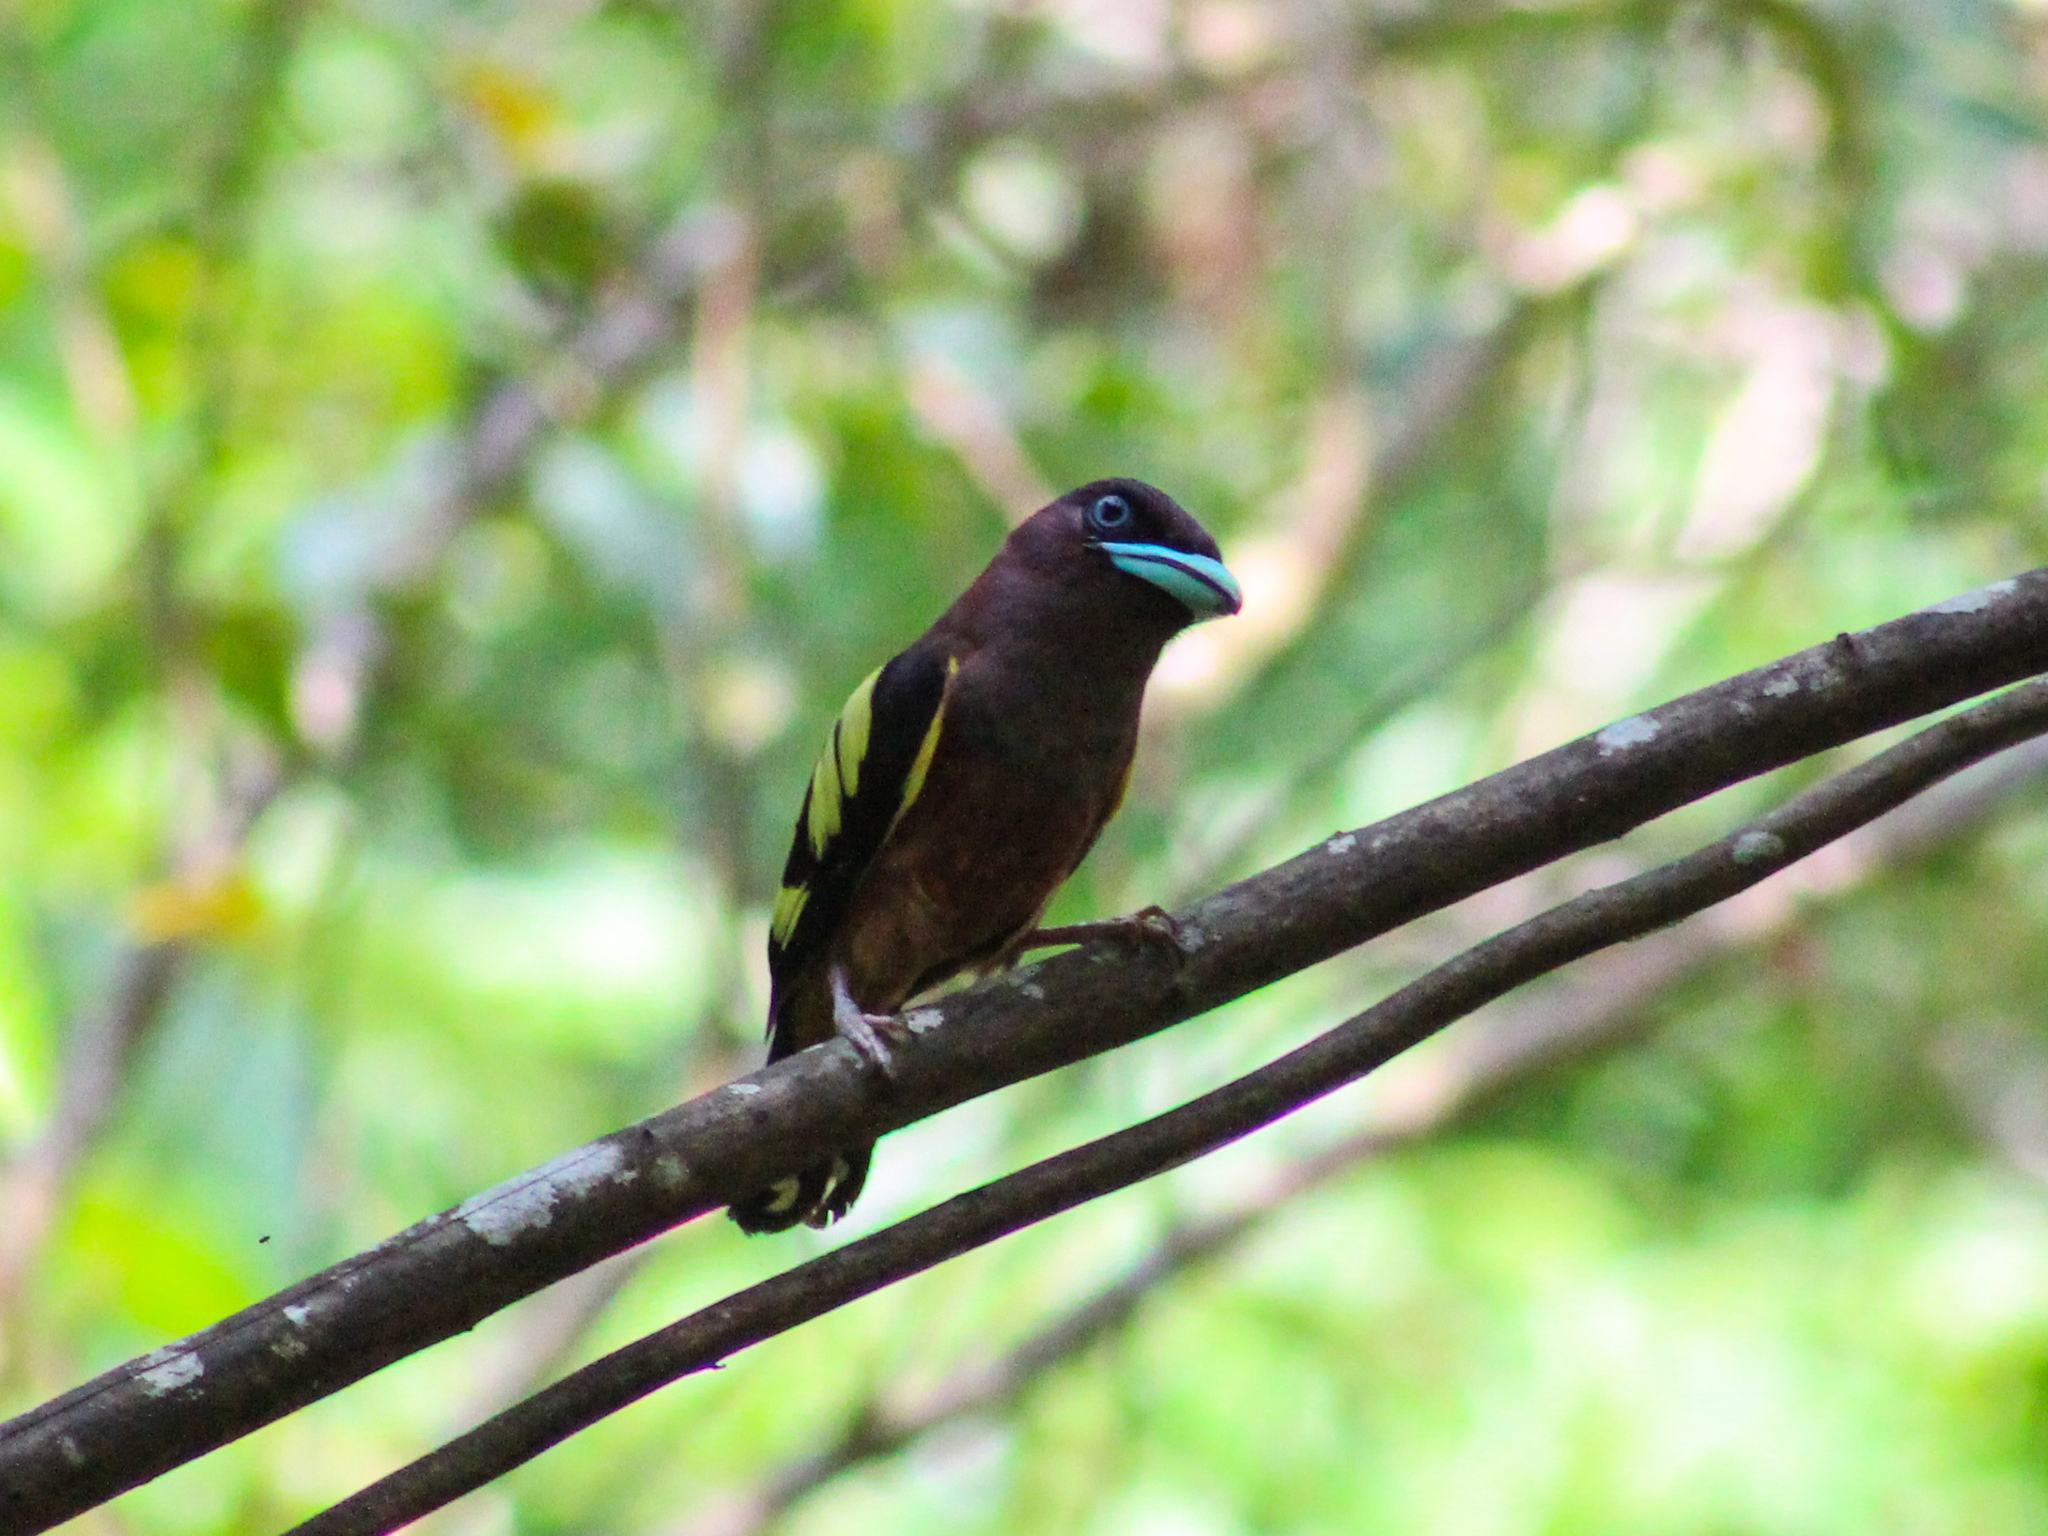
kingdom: Animalia
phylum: Chordata
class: Aves
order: Passeriformes
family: Eurylaimidae
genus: Eurylaimus
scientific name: Eurylaimus javanicus
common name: Banded broadbill
